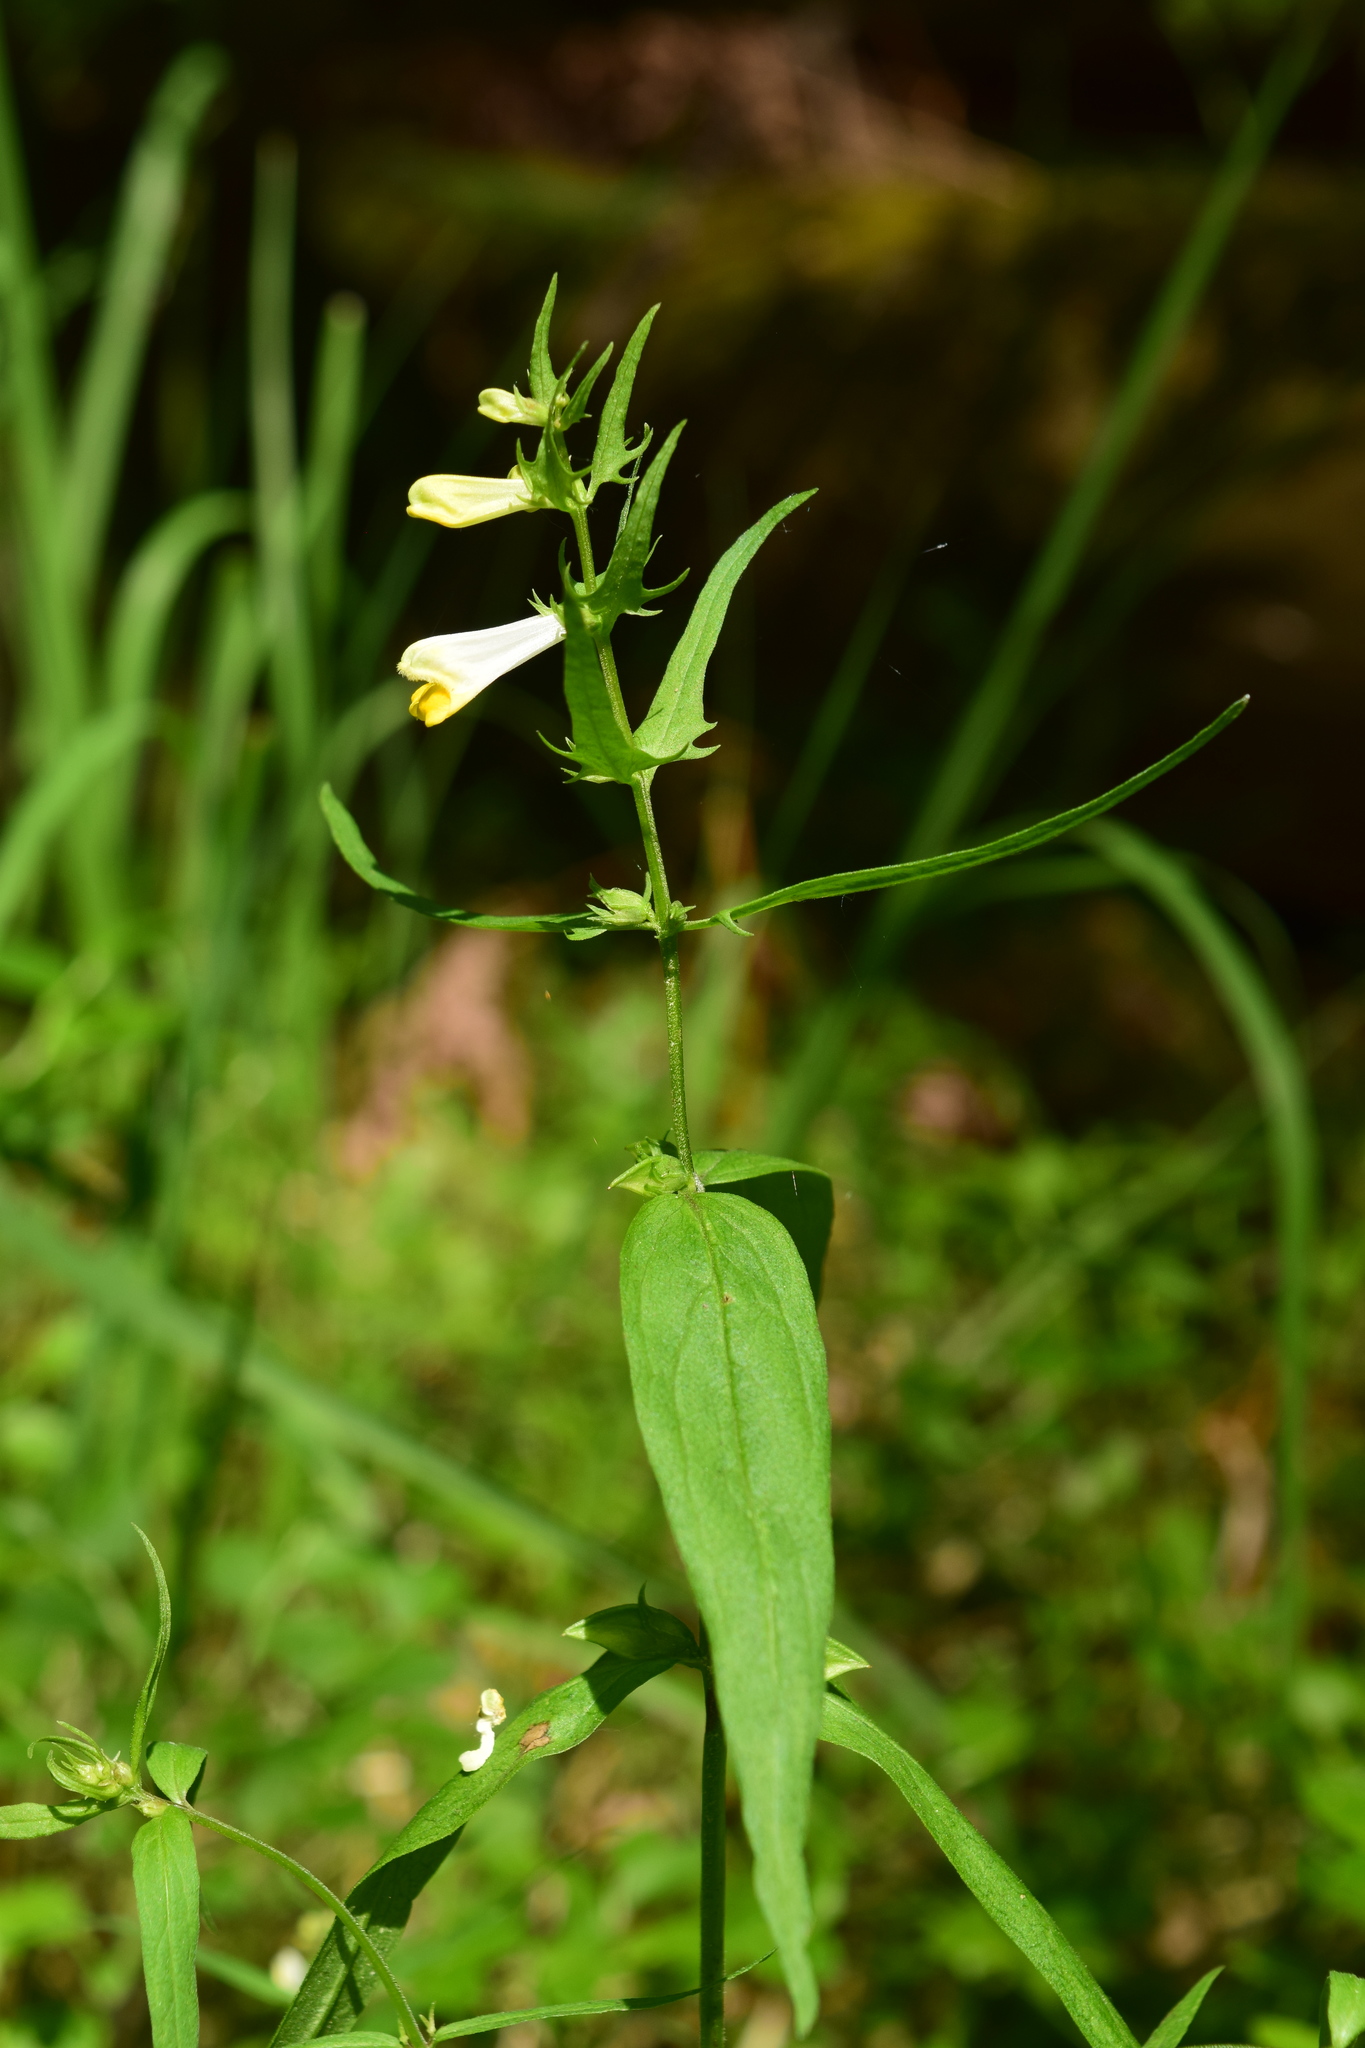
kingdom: Plantae
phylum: Tracheophyta
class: Magnoliopsida
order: Lamiales
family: Orobanchaceae
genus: Melampyrum
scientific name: Melampyrum pratense
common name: Common cow-wheat
